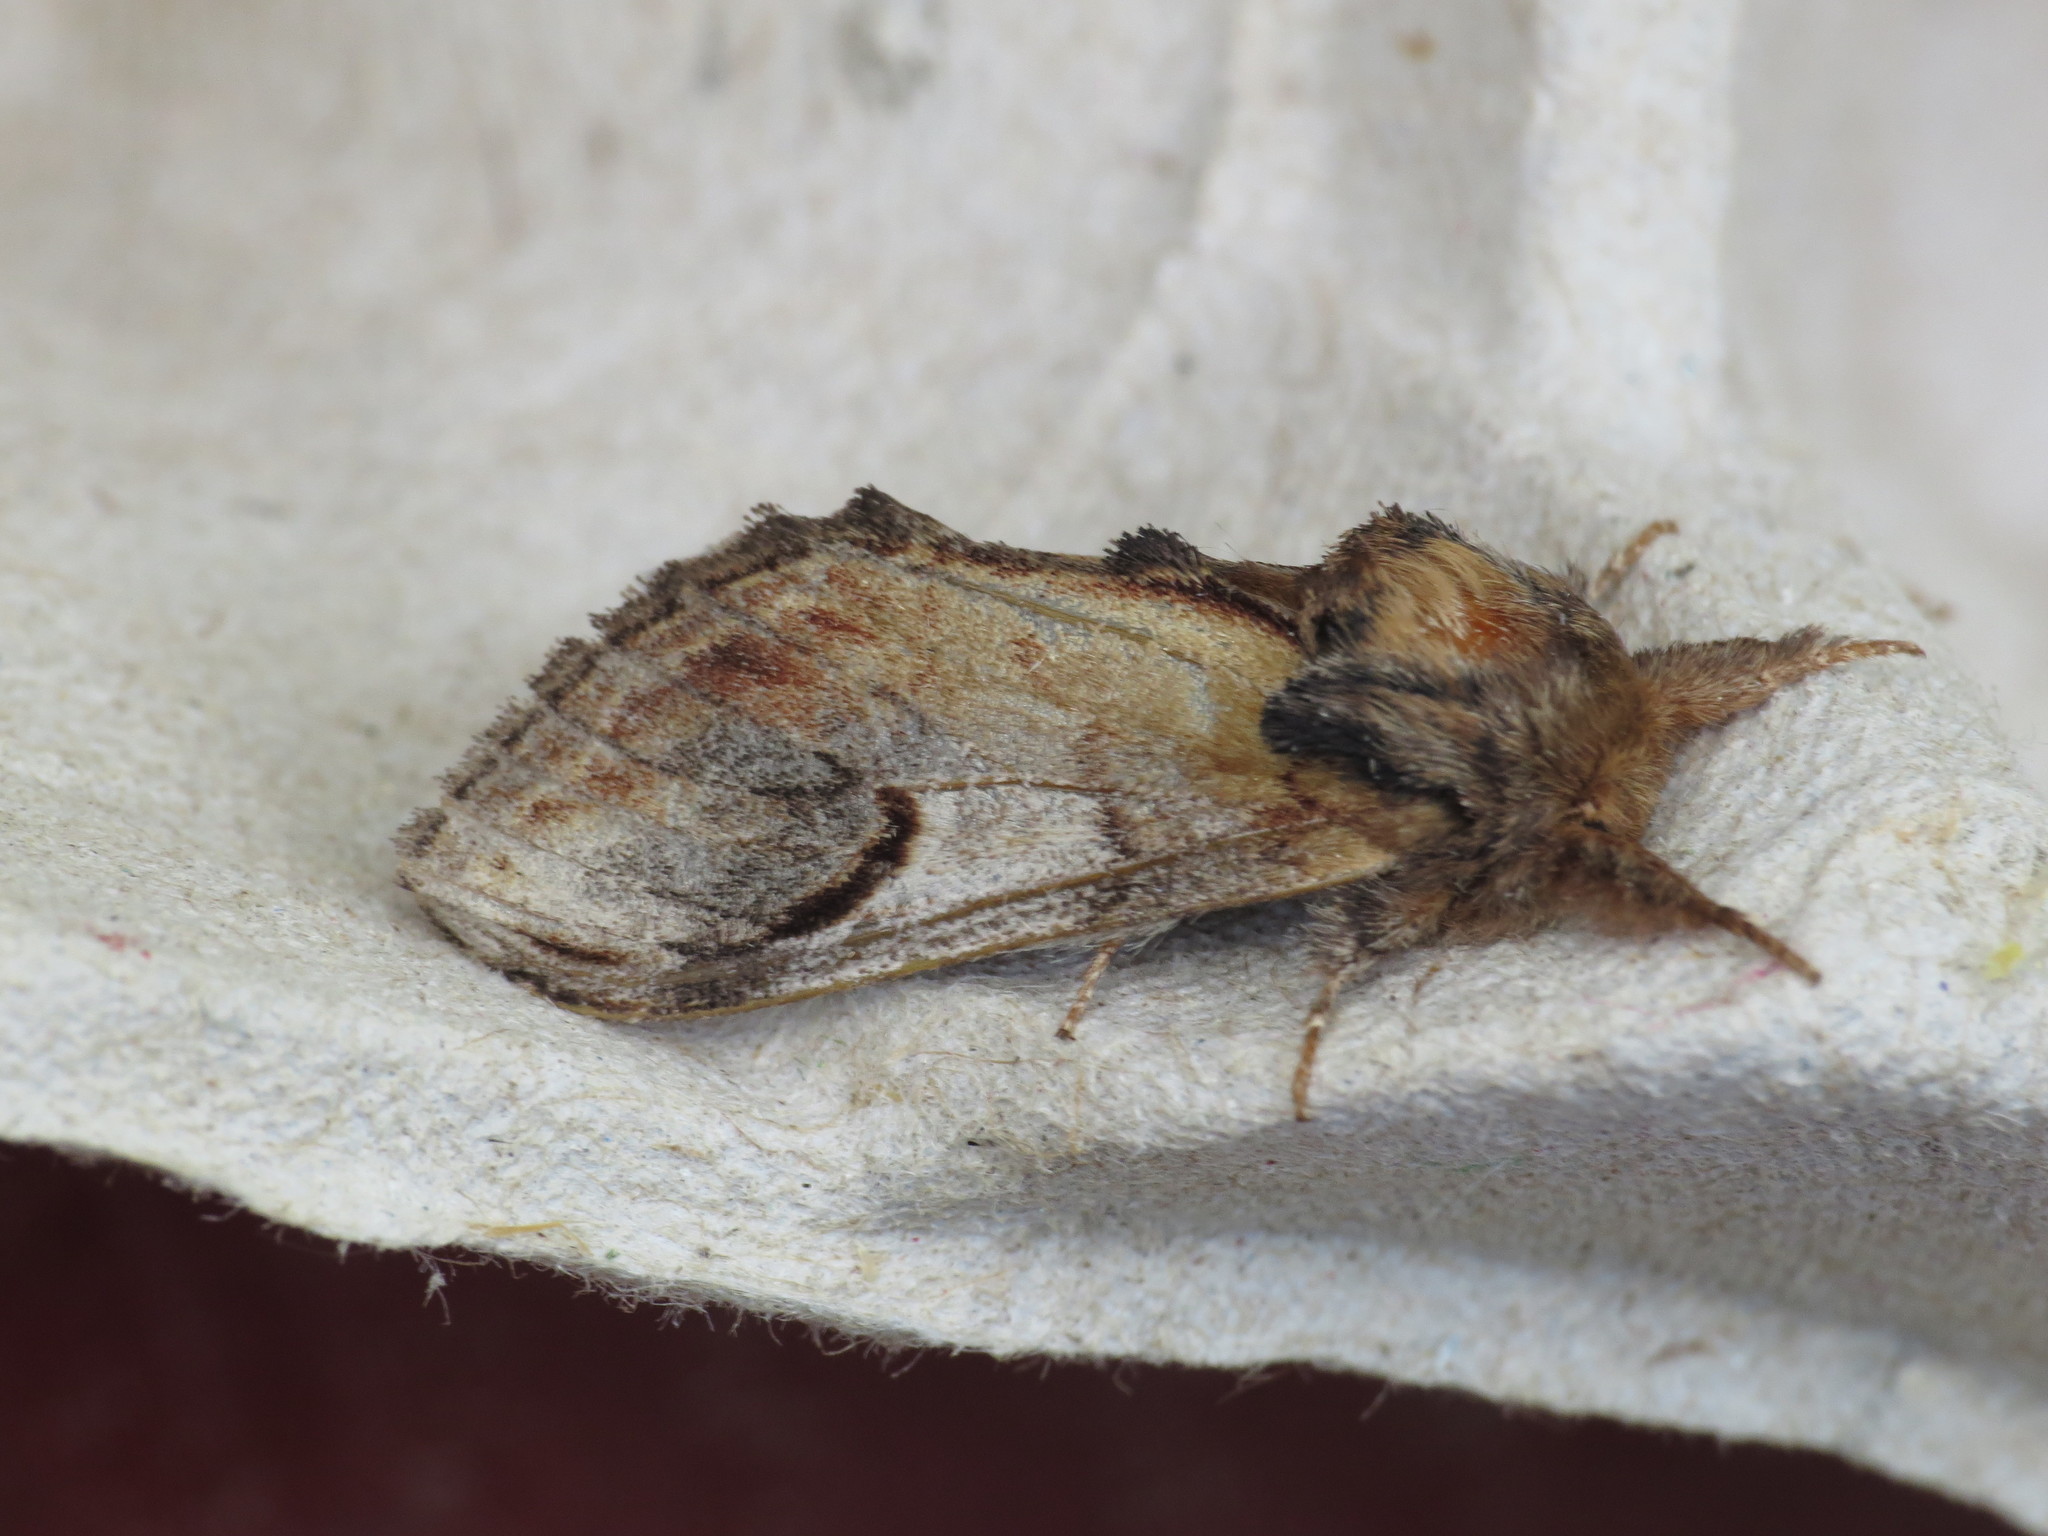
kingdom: Animalia
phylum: Arthropoda
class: Insecta
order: Lepidoptera
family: Notodontidae
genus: Notodonta
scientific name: Notodonta ziczac
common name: Pebble prominent
